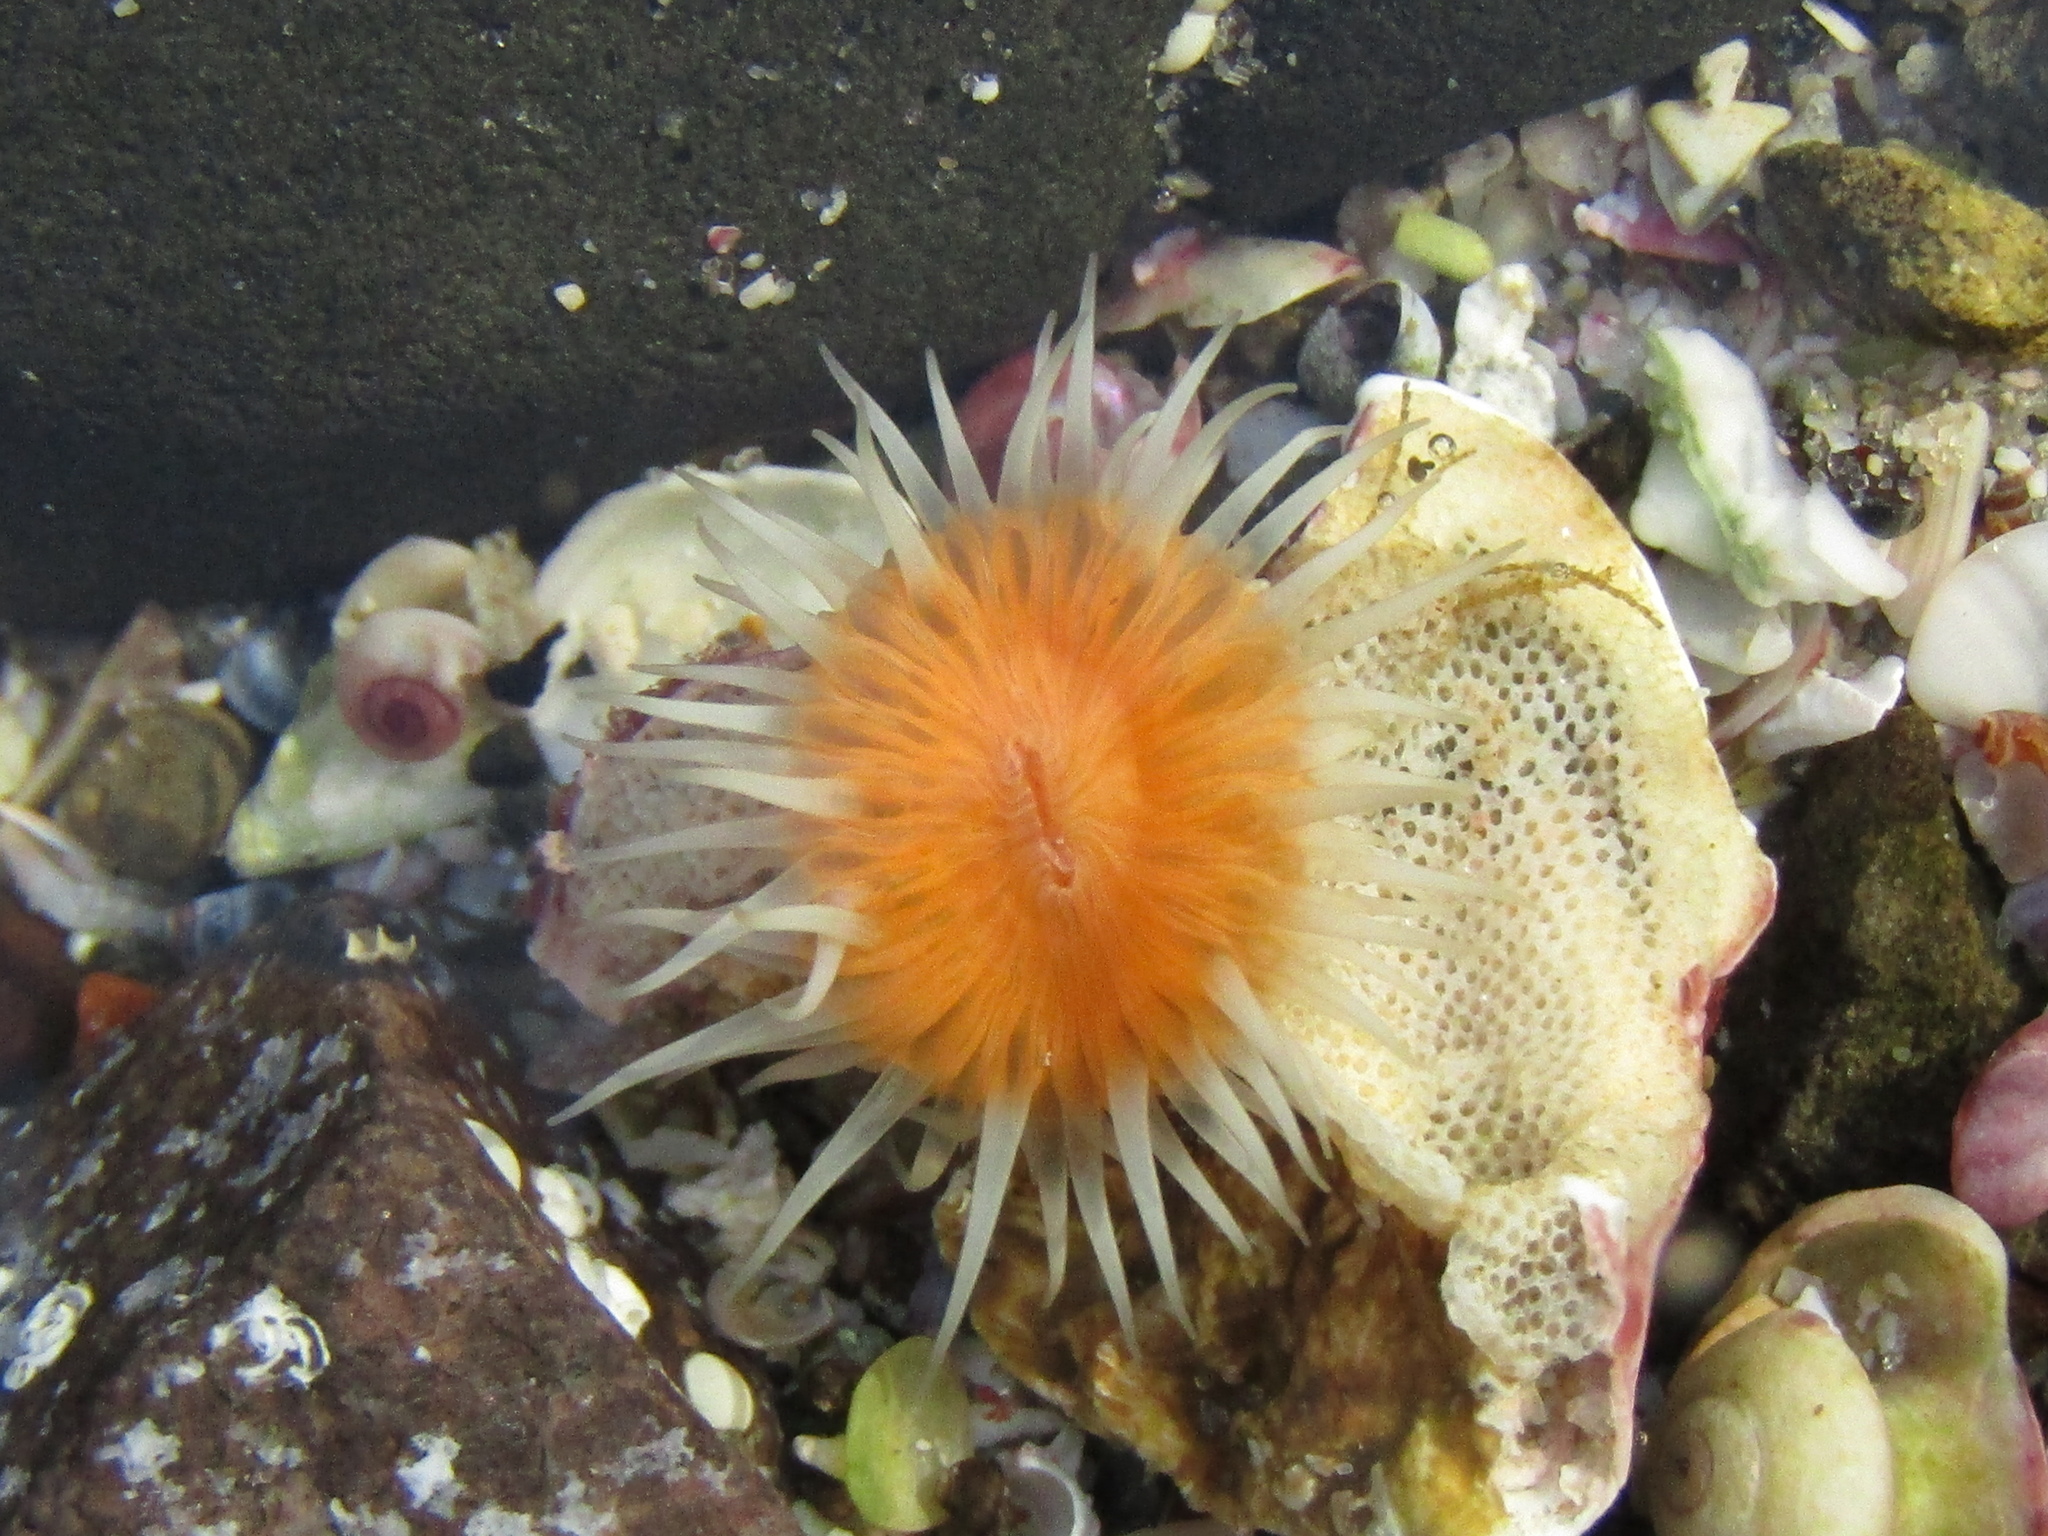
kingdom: Animalia
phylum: Cnidaria
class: Anthozoa
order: Actiniaria
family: Sagartiidae
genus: Anthothoe
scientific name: Anthothoe albocincta
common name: Orange striped anemone
